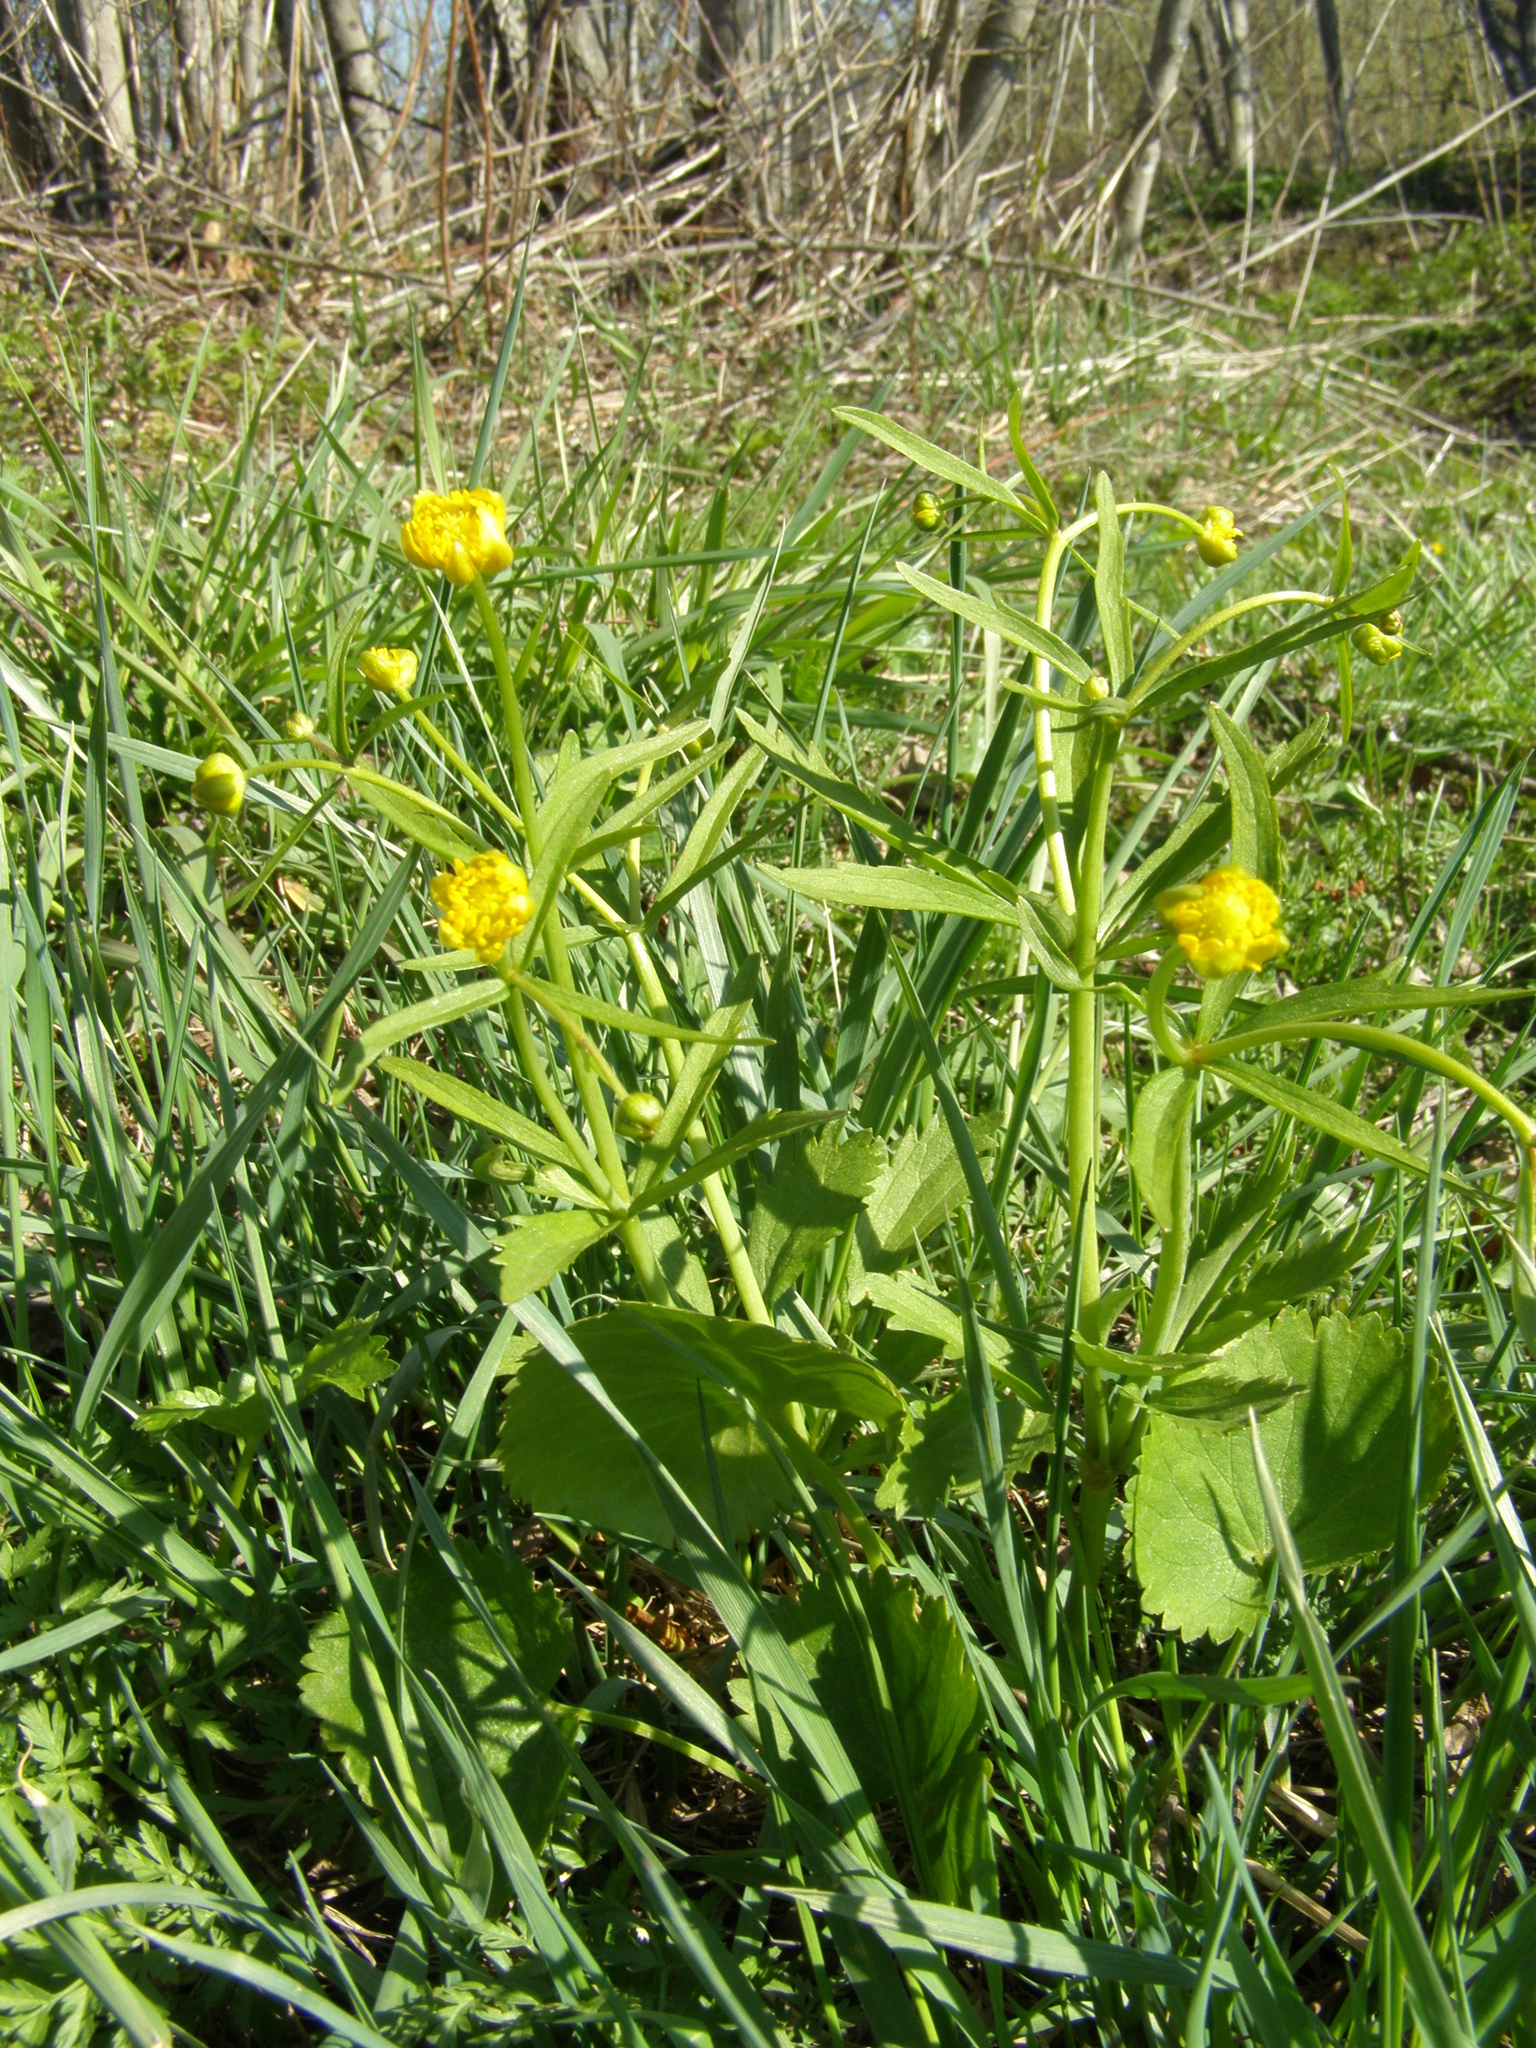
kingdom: Plantae
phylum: Tracheophyta
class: Magnoliopsida
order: Ranunculales
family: Ranunculaceae
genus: Ranunculus
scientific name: Ranunculus cassubicus
